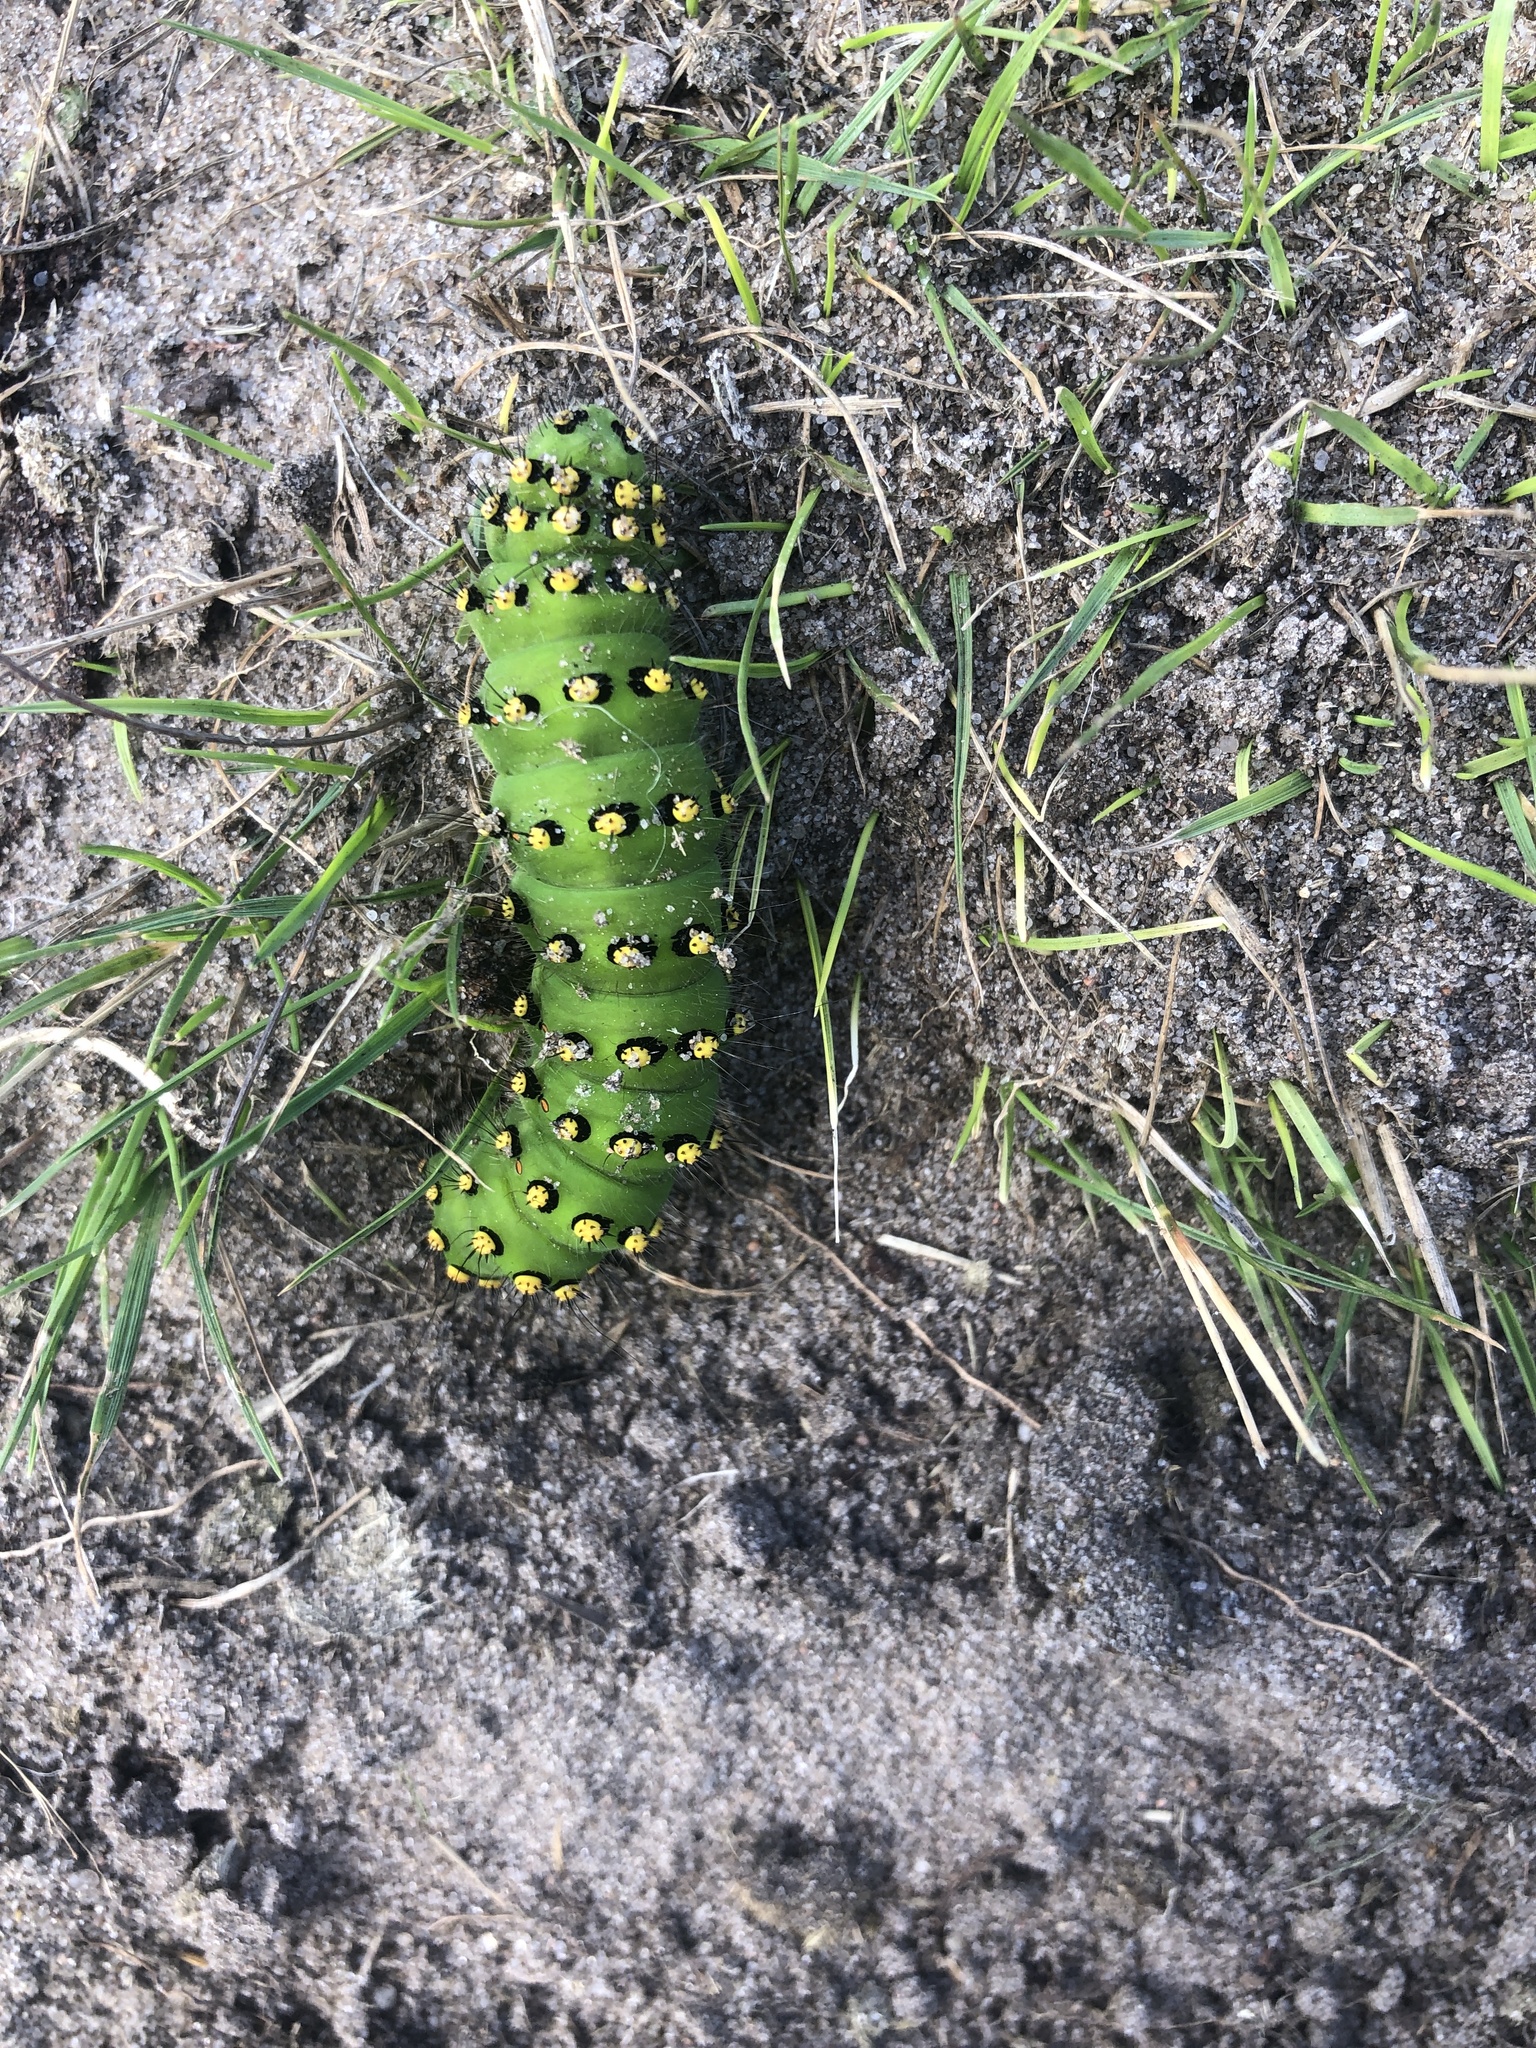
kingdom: Animalia
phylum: Arthropoda
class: Insecta
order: Lepidoptera
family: Saturniidae
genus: Saturnia
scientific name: Saturnia pavonia
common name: Emperor moth
